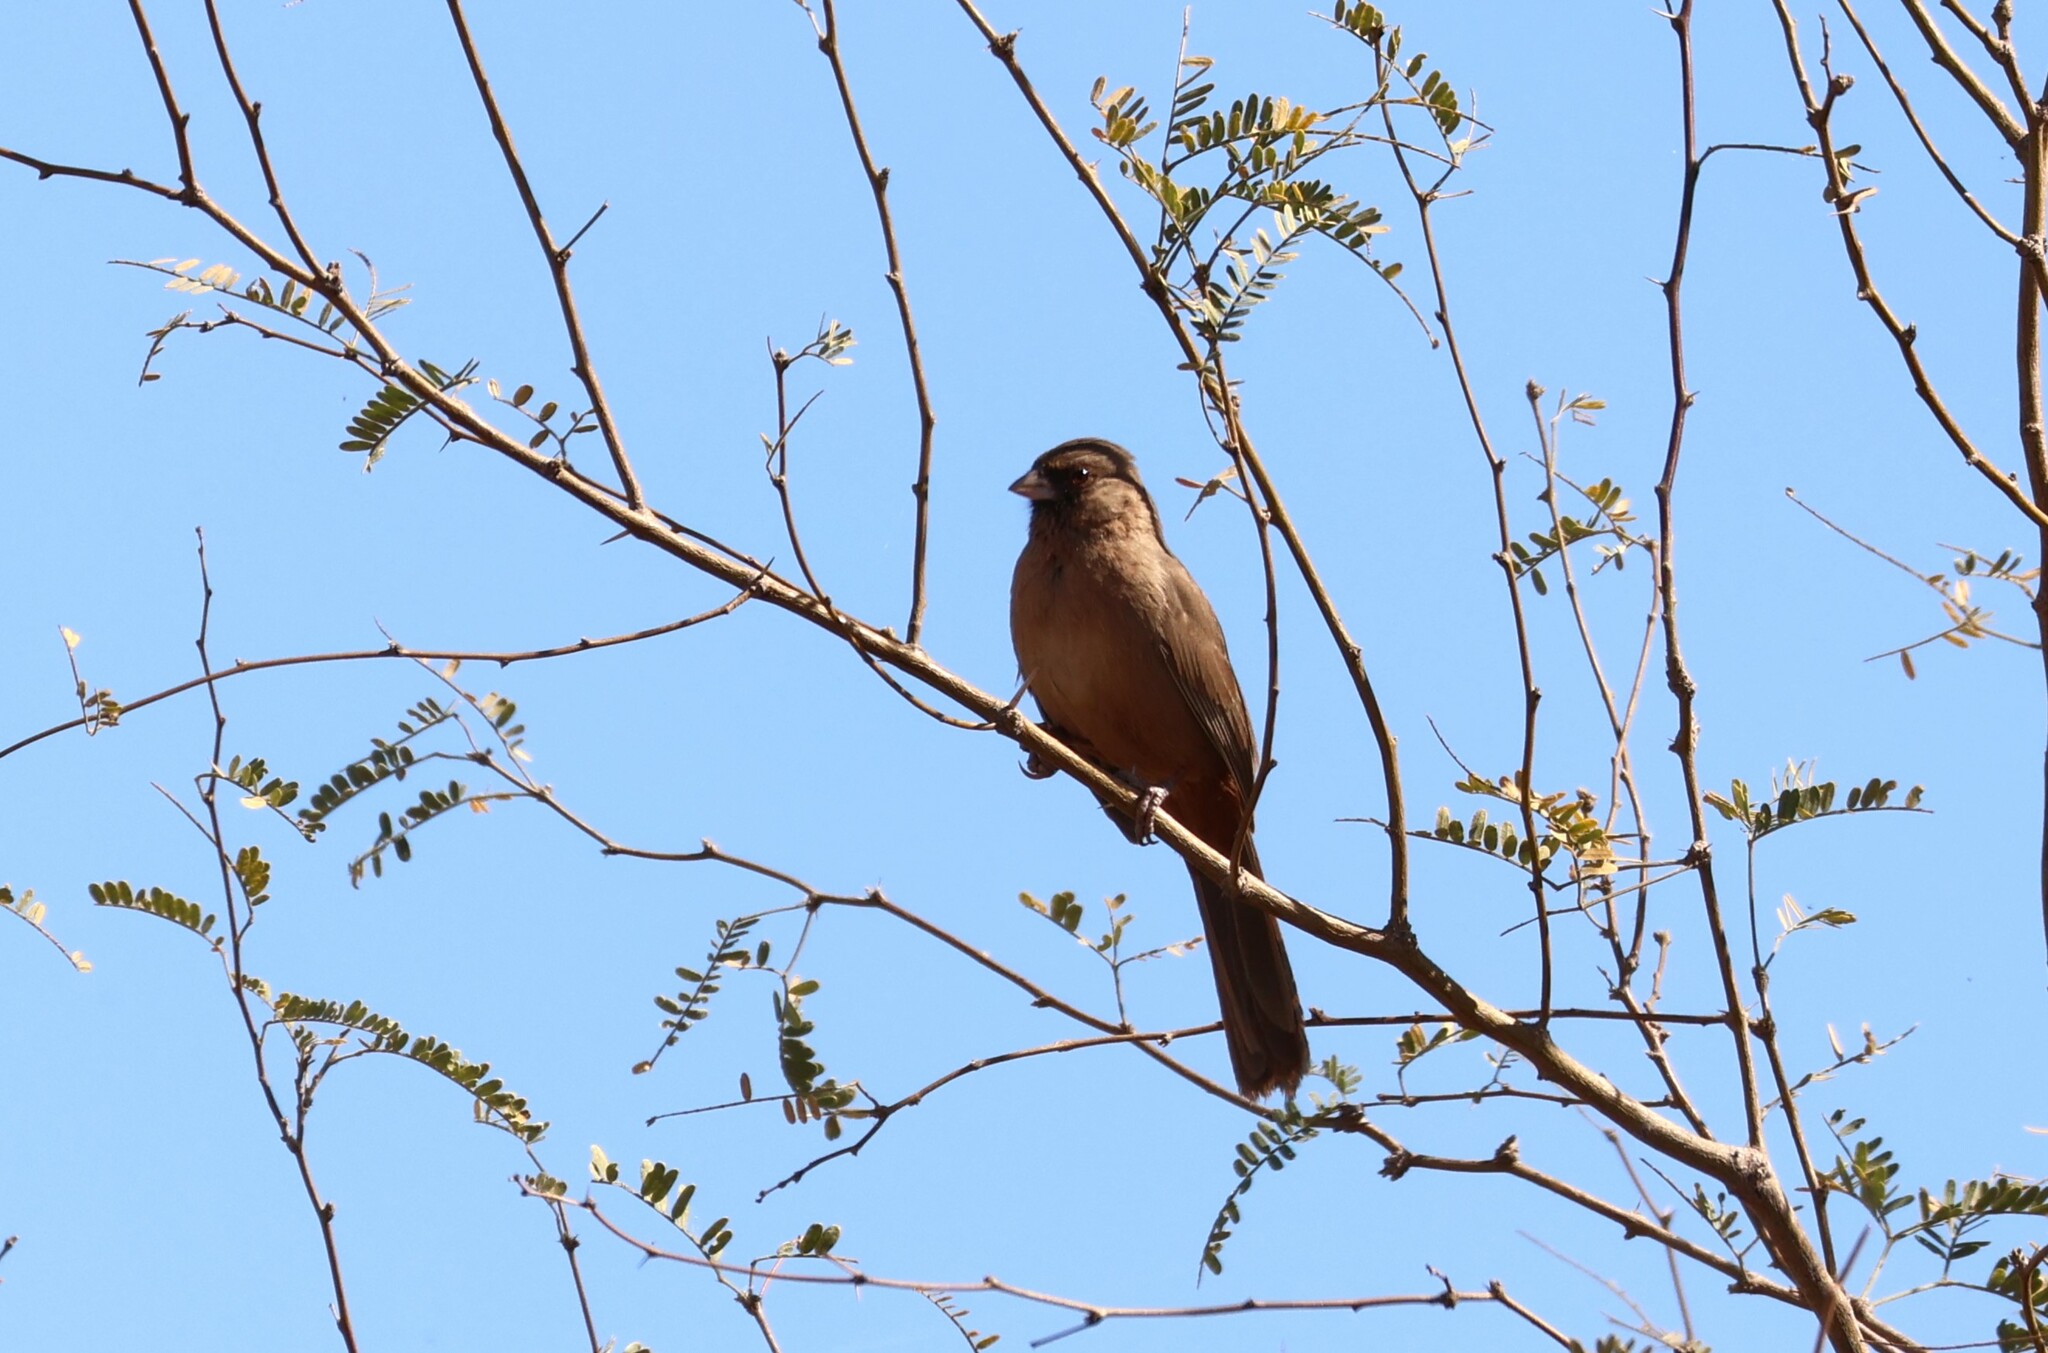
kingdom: Animalia
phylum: Chordata
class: Aves
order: Passeriformes
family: Passerellidae
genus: Melozone
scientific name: Melozone aberti
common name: Abert's towhee
